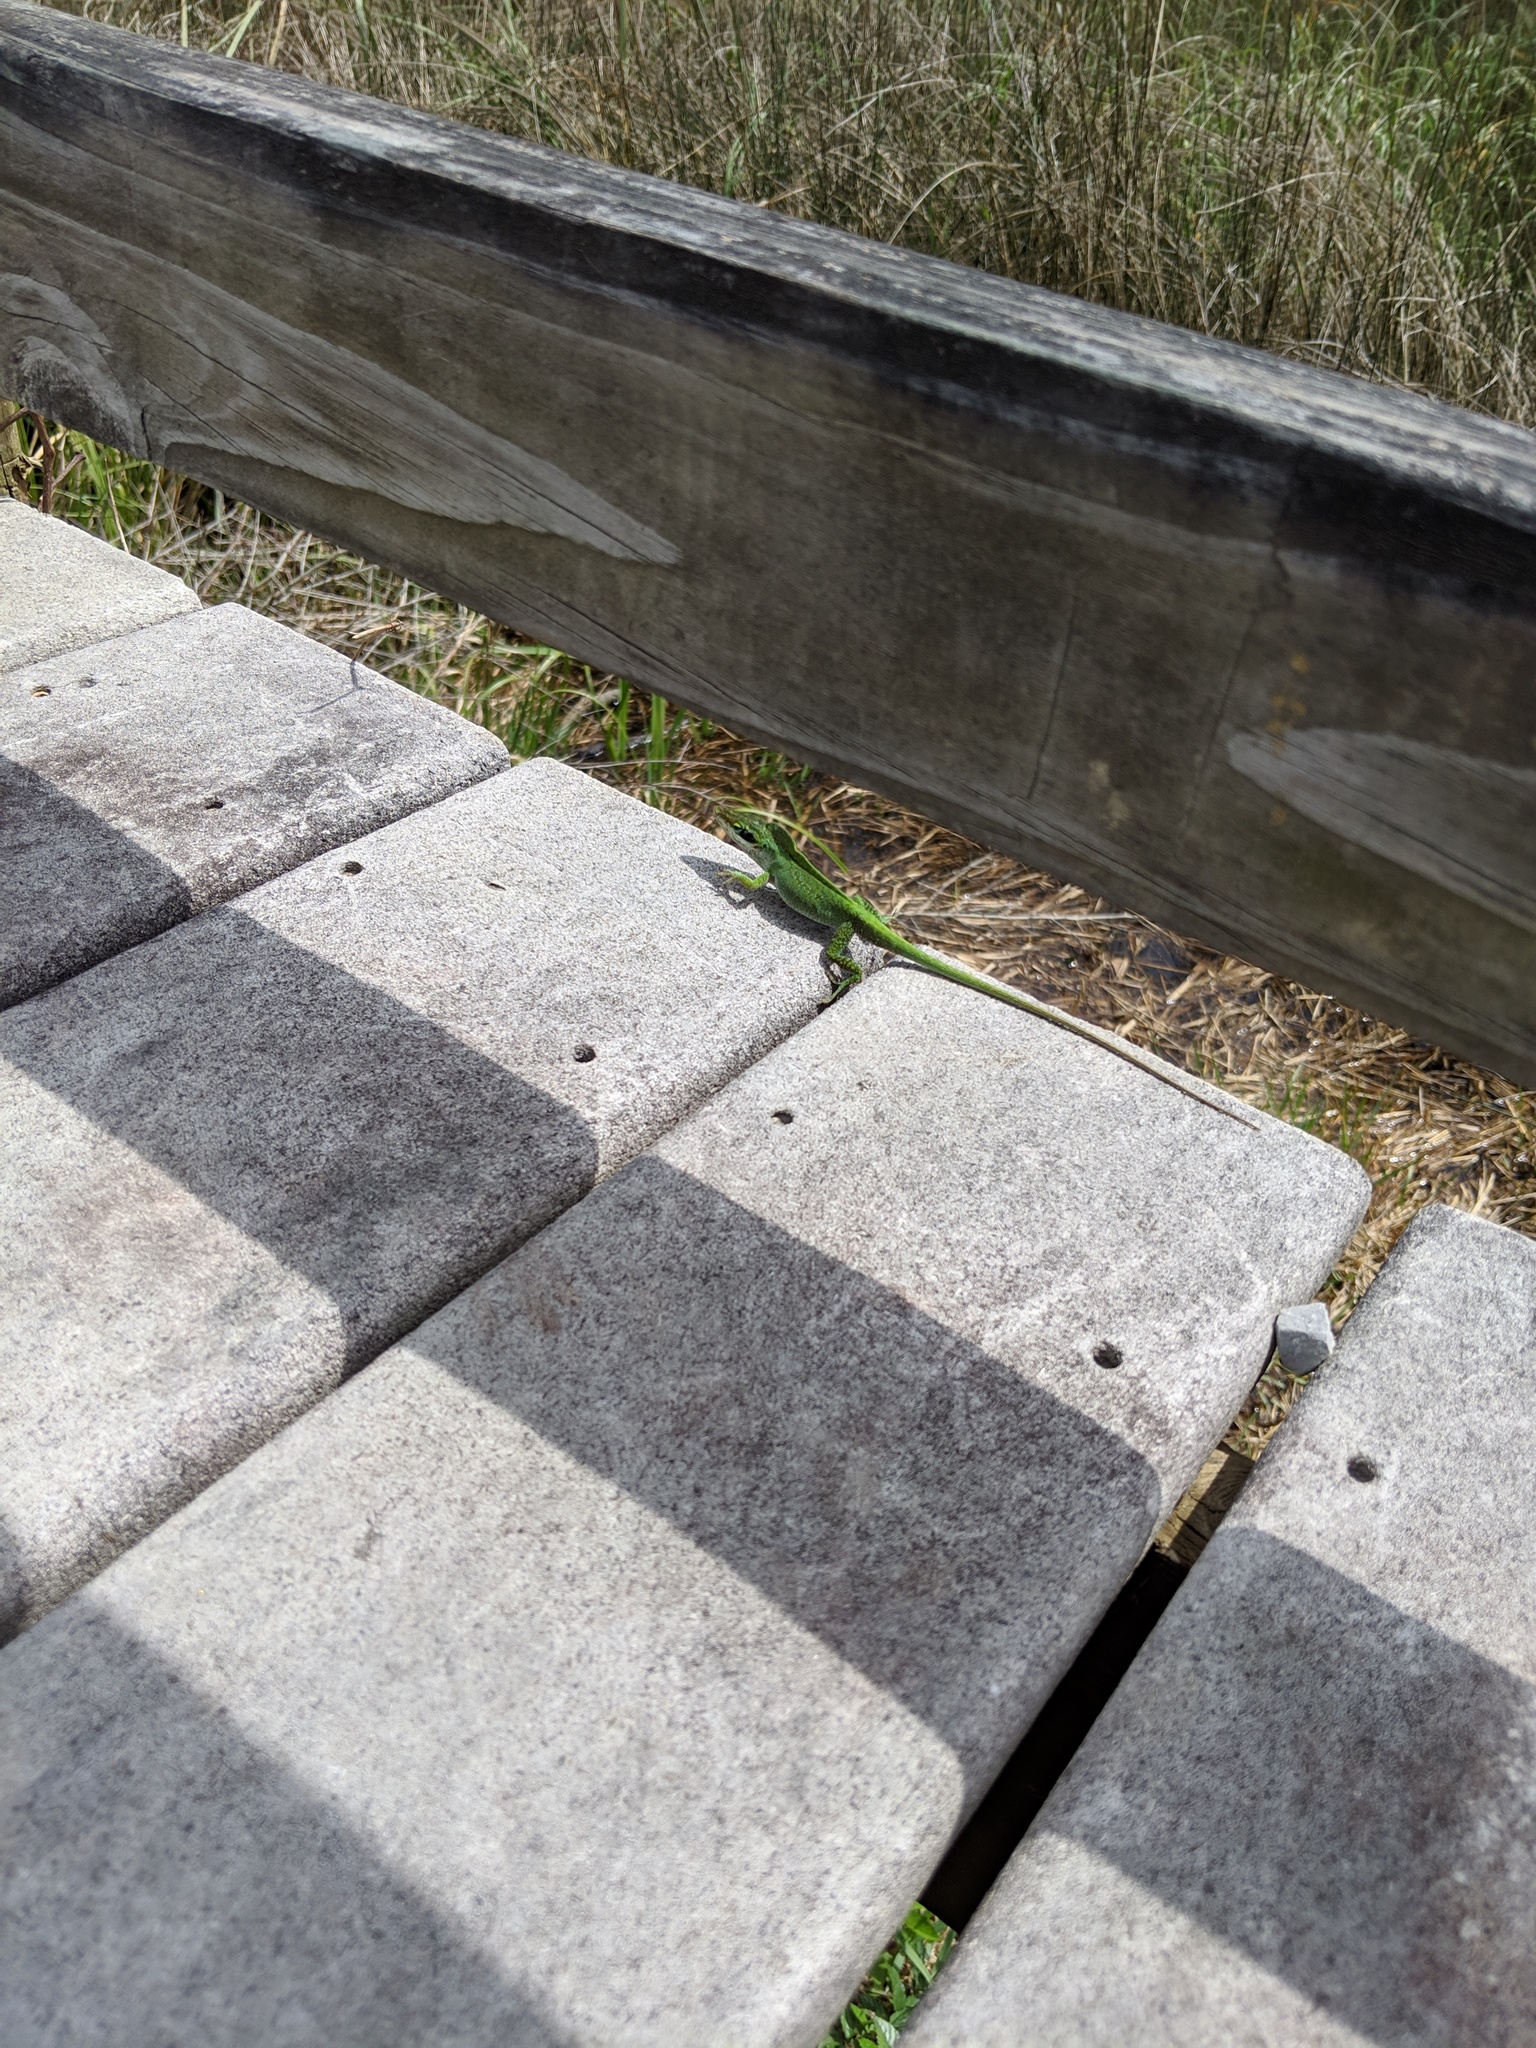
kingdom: Animalia
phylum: Chordata
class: Squamata
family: Dactyloidae
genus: Anolis
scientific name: Anolis carolinensis
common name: Green anole
